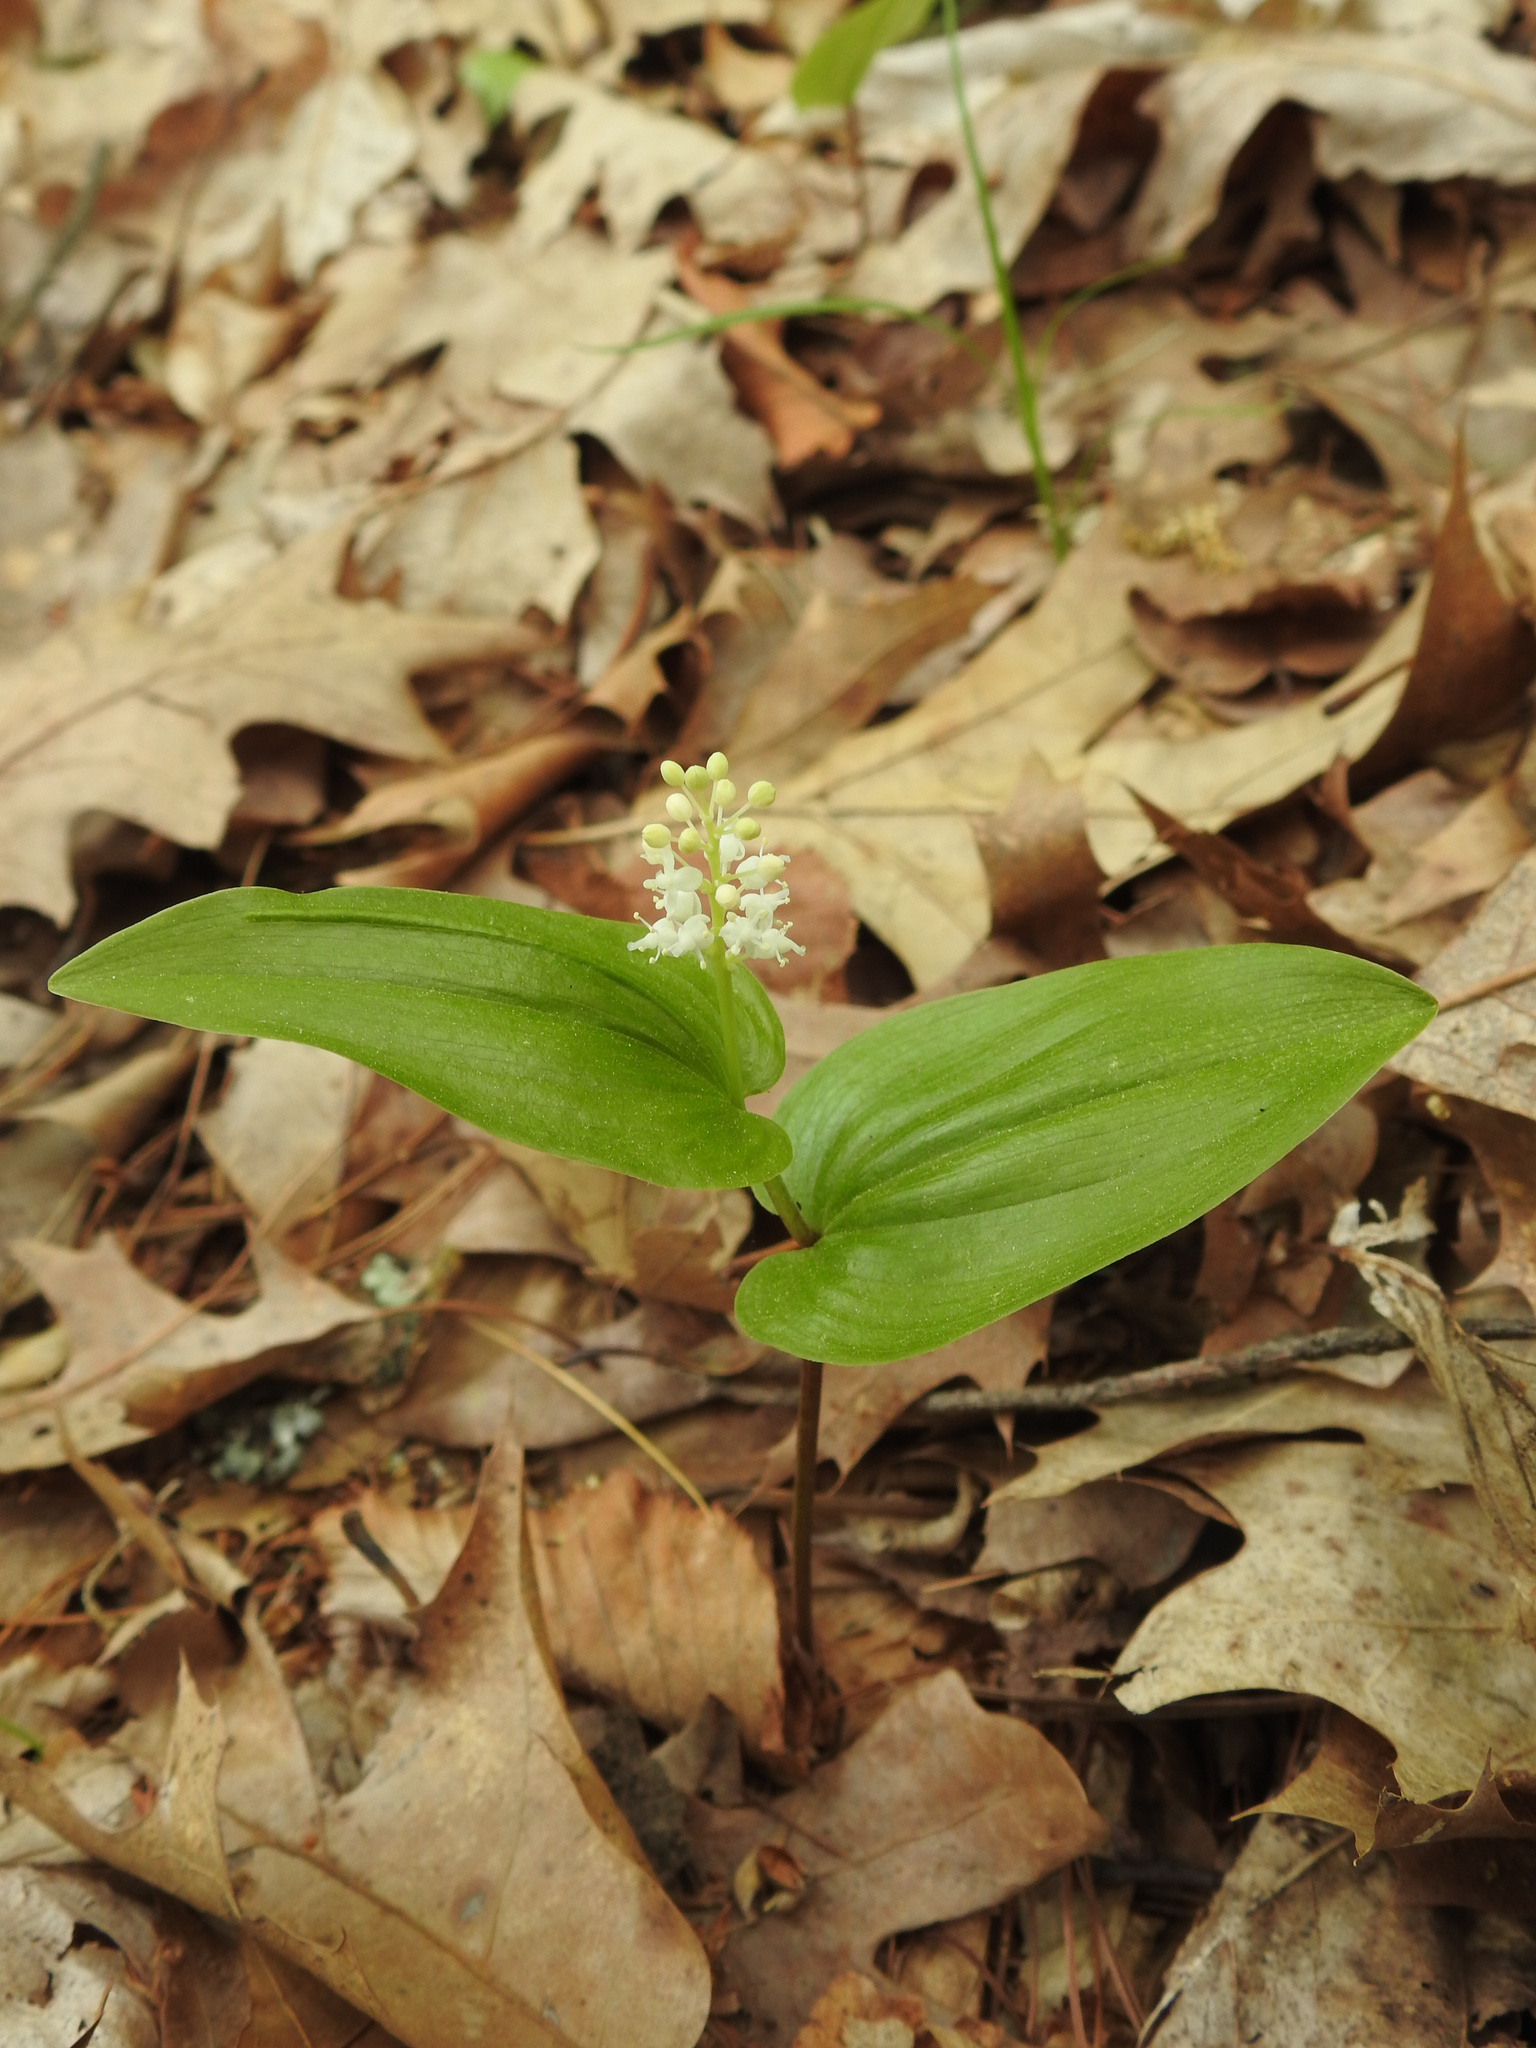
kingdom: Plantae
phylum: Tracheophyta
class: Liliopsida
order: Asparagales
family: Asparagaceae
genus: Maianthemum
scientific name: Maianthemum canadense
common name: False lily-of-the-valley
